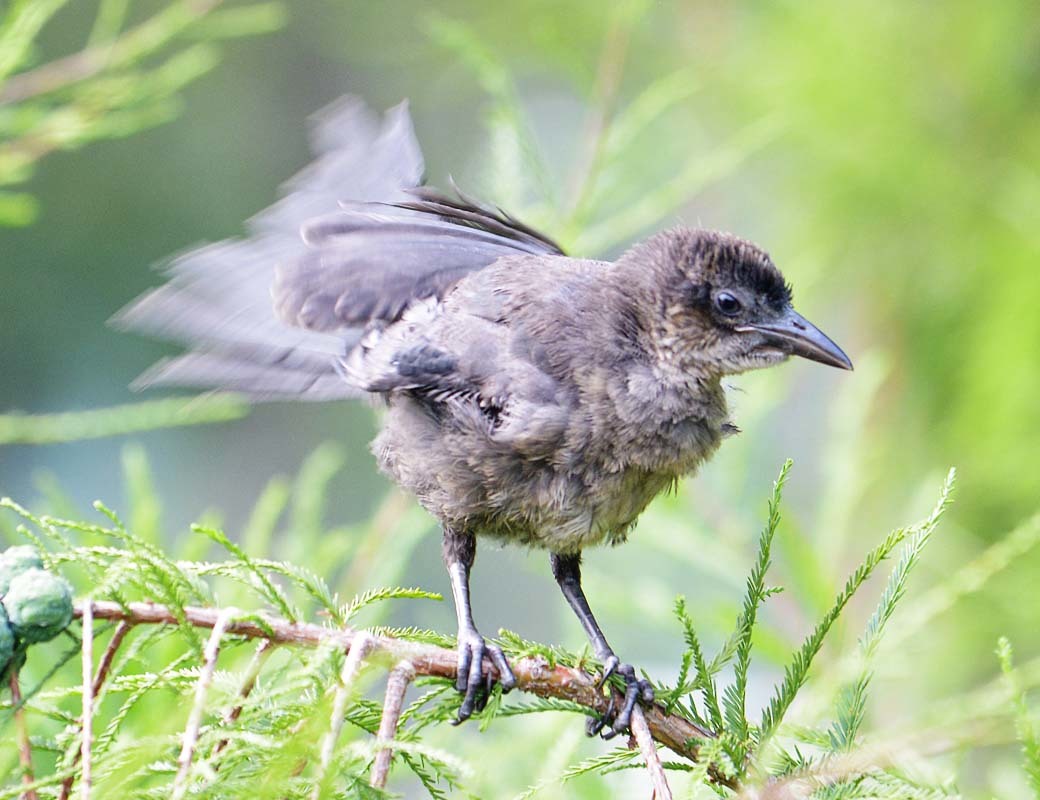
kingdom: Animalia
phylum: Chordata
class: Aves
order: Passeriformes
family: Icteridae
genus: Quiscalus
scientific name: Quiscalus mexicanus
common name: Great-tailed grackle
